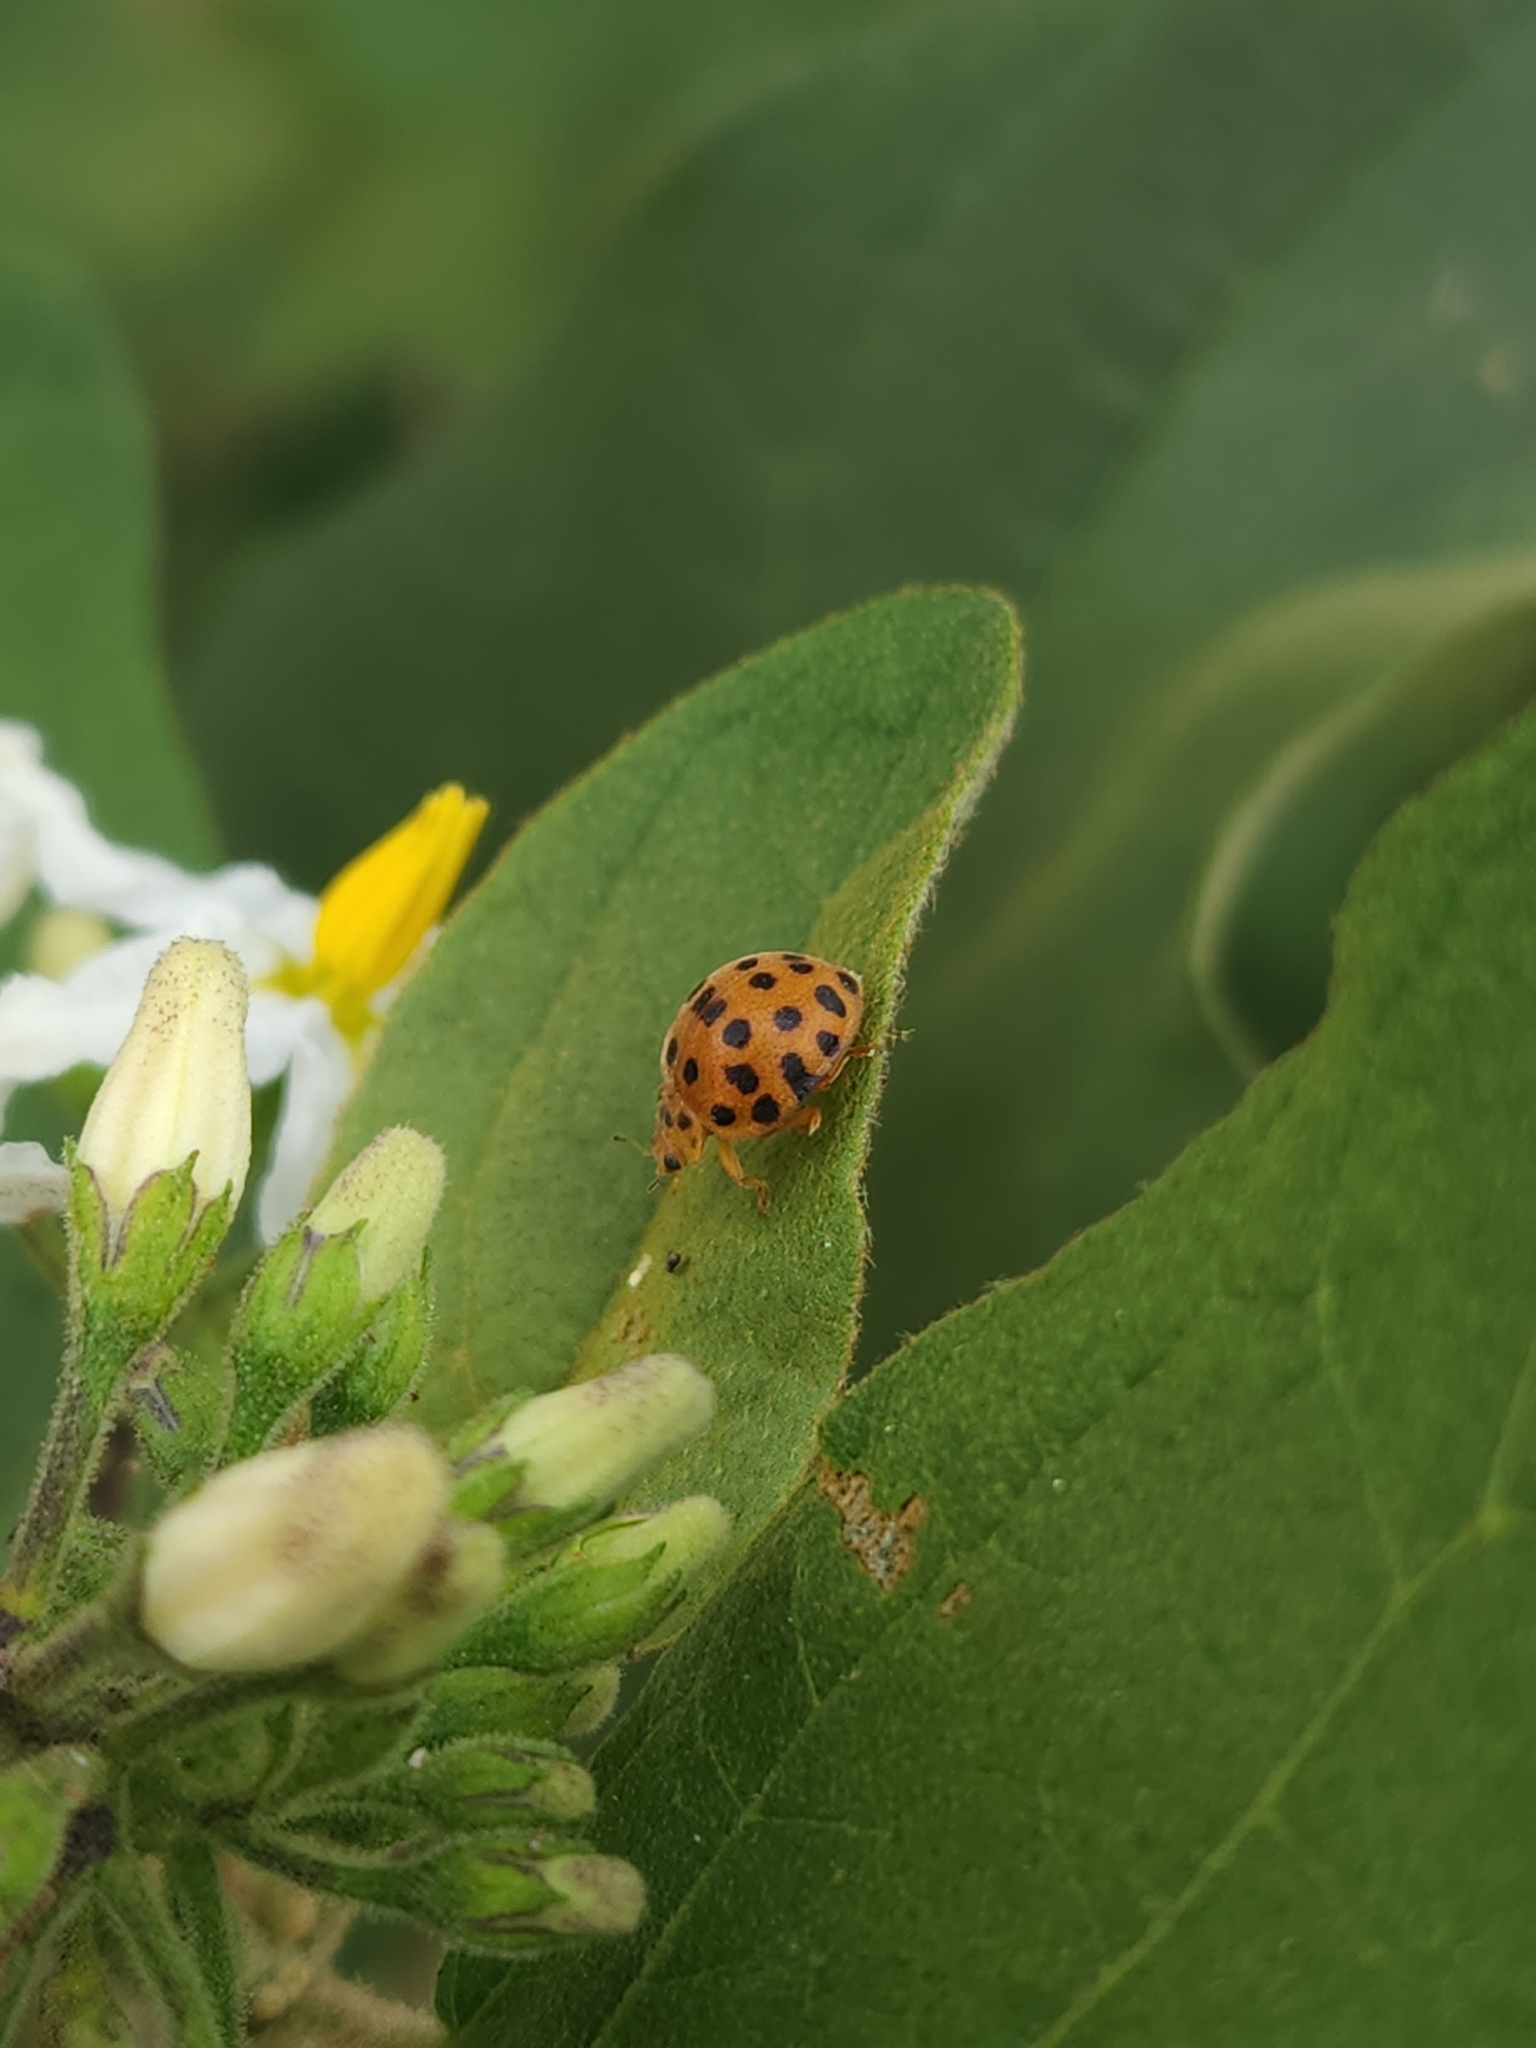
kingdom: Animalia
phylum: Arthropoda
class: Insecta
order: Coleoptera
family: Coccinellidae
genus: Henosepilachna
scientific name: Henosepilachna vigintioctopunctata
